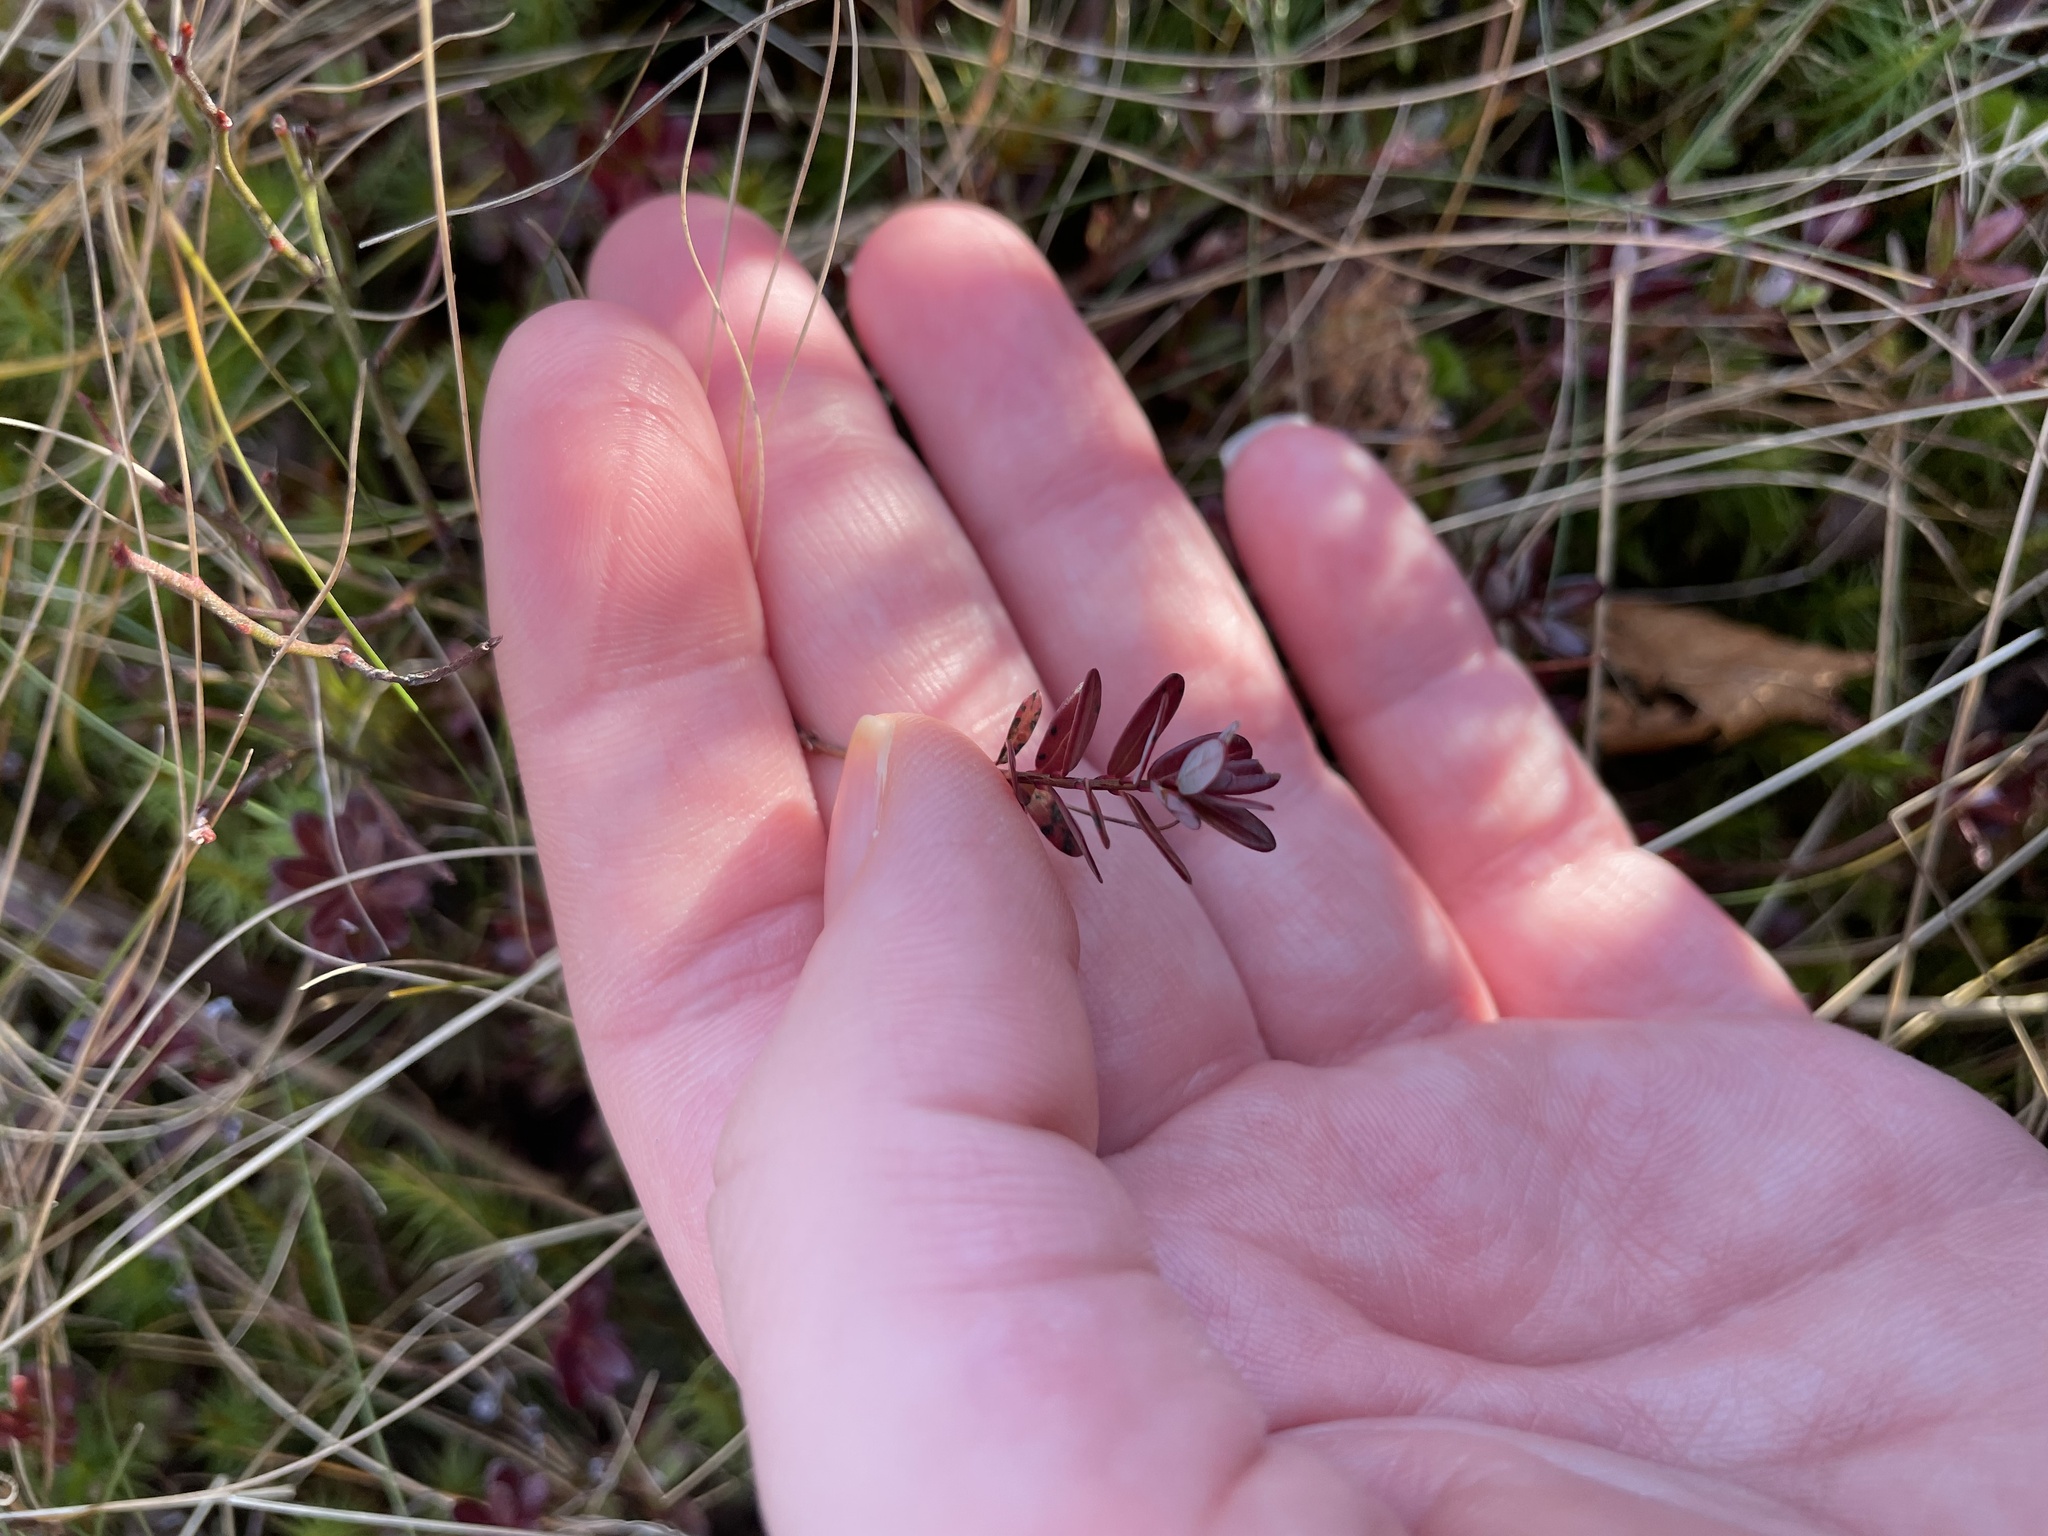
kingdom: Plantae
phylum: Tracheophyta
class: Magnoliopsida
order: Ericales
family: Ericaceae
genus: Vaccinium
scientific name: Vaccinium macrocarpon
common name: American cranberry
